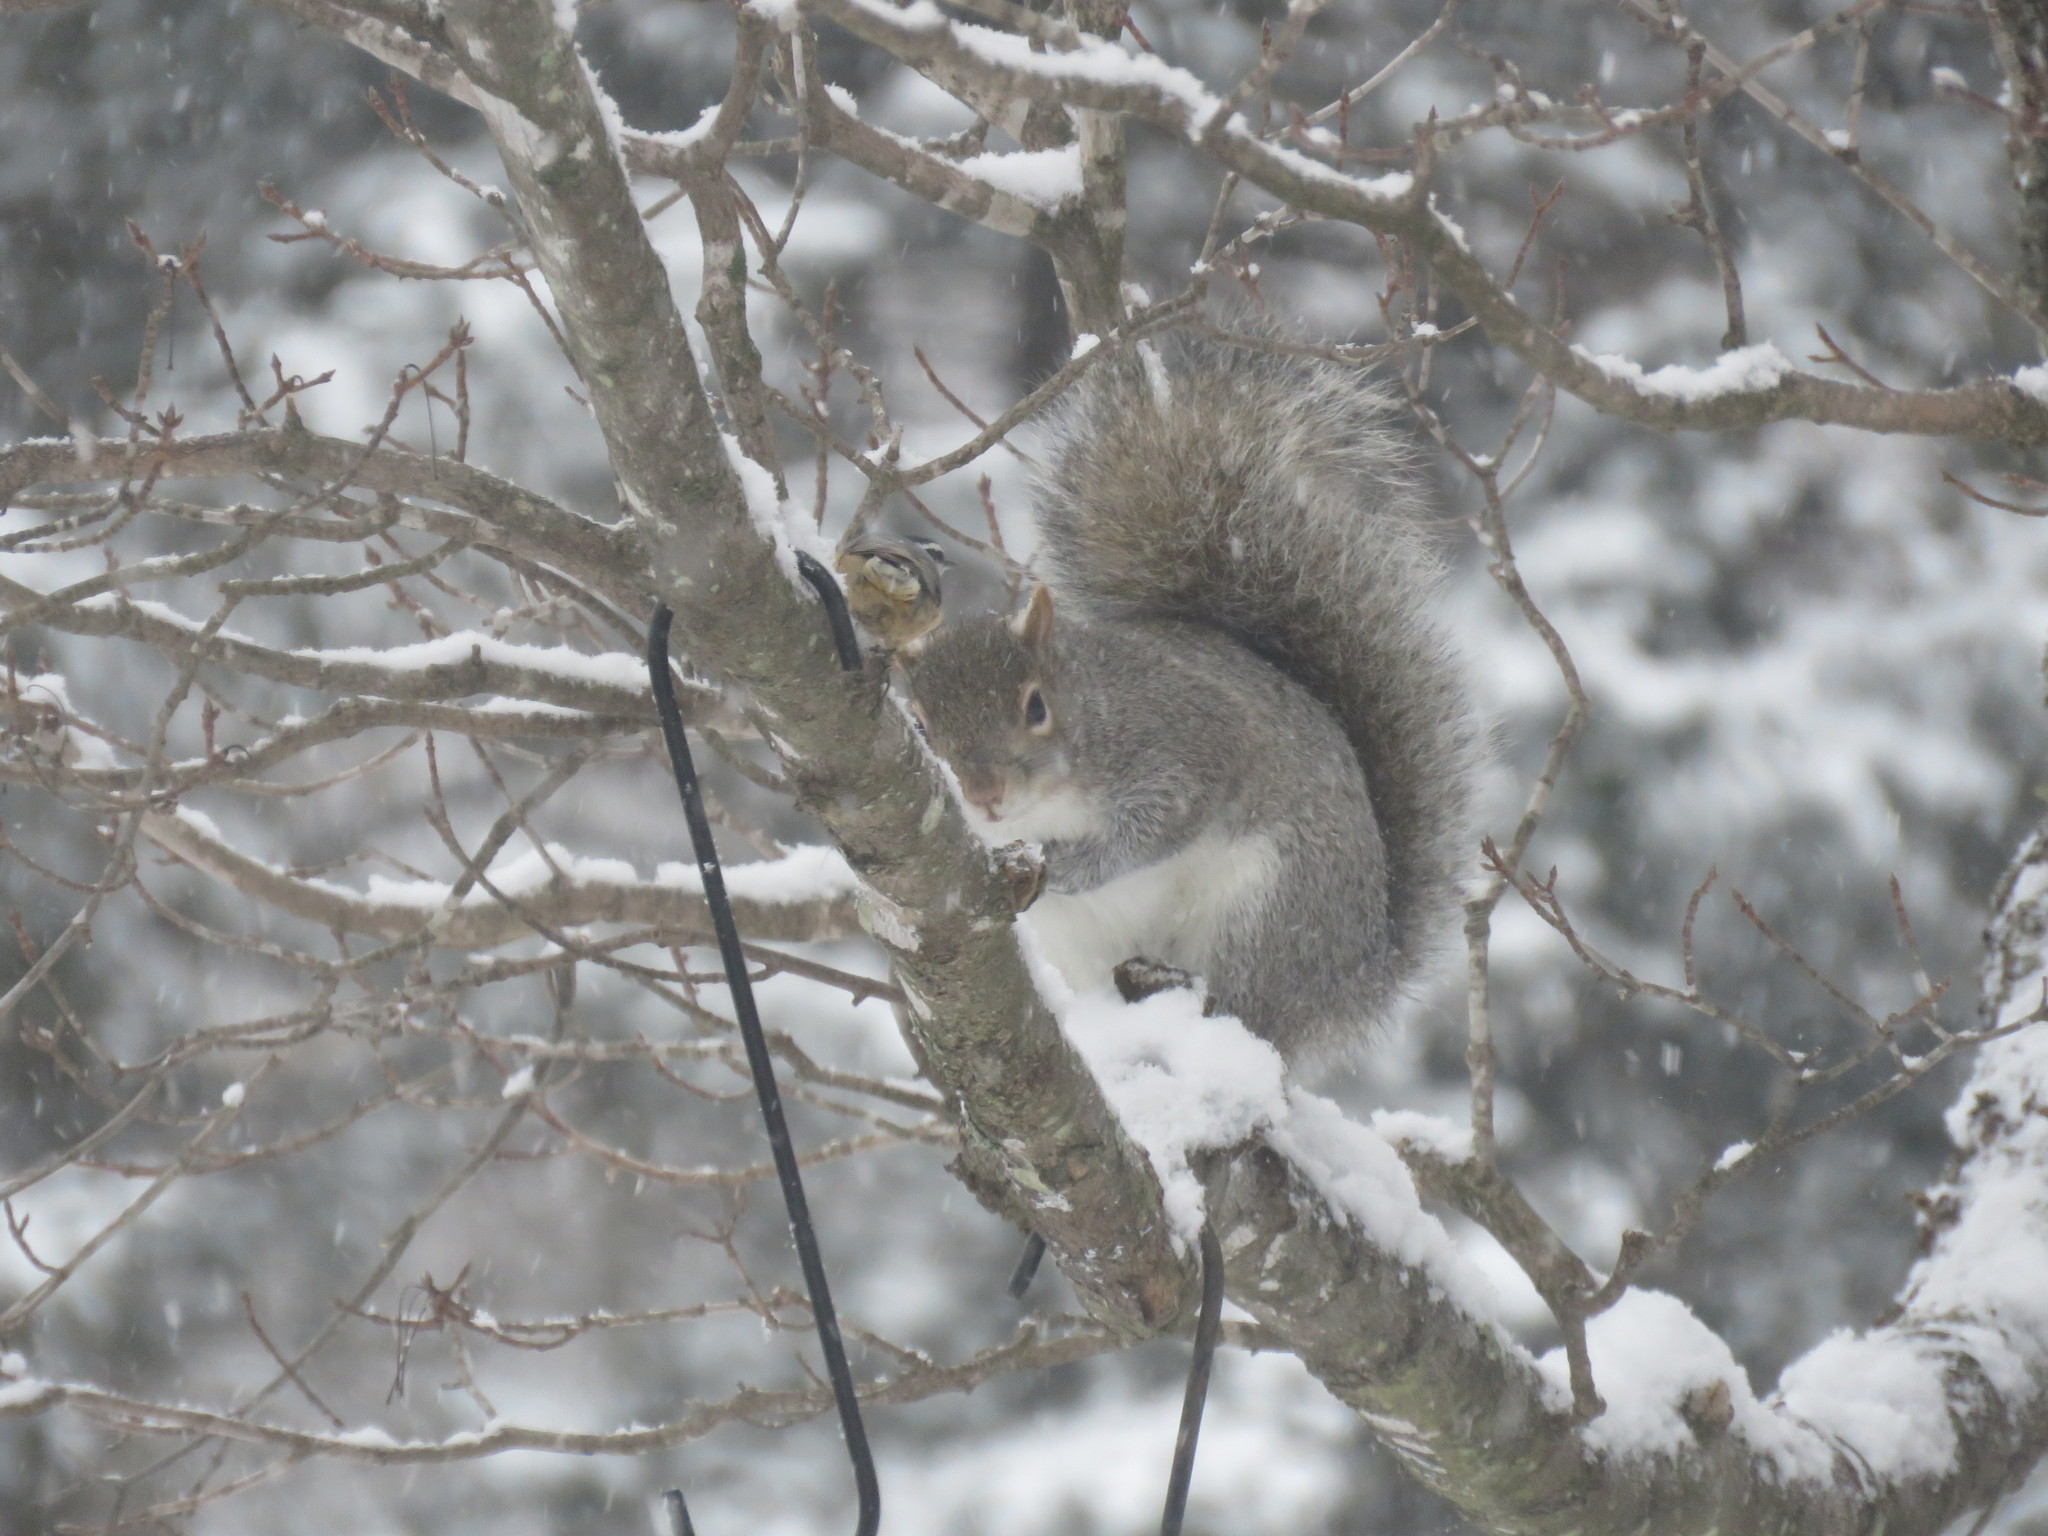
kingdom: Animalia
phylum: Chordata
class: Mammalia
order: Rodentia
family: Sciuridae
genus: Sciurus
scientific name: Sciurus carolinensis
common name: Eastern gray squirrel
